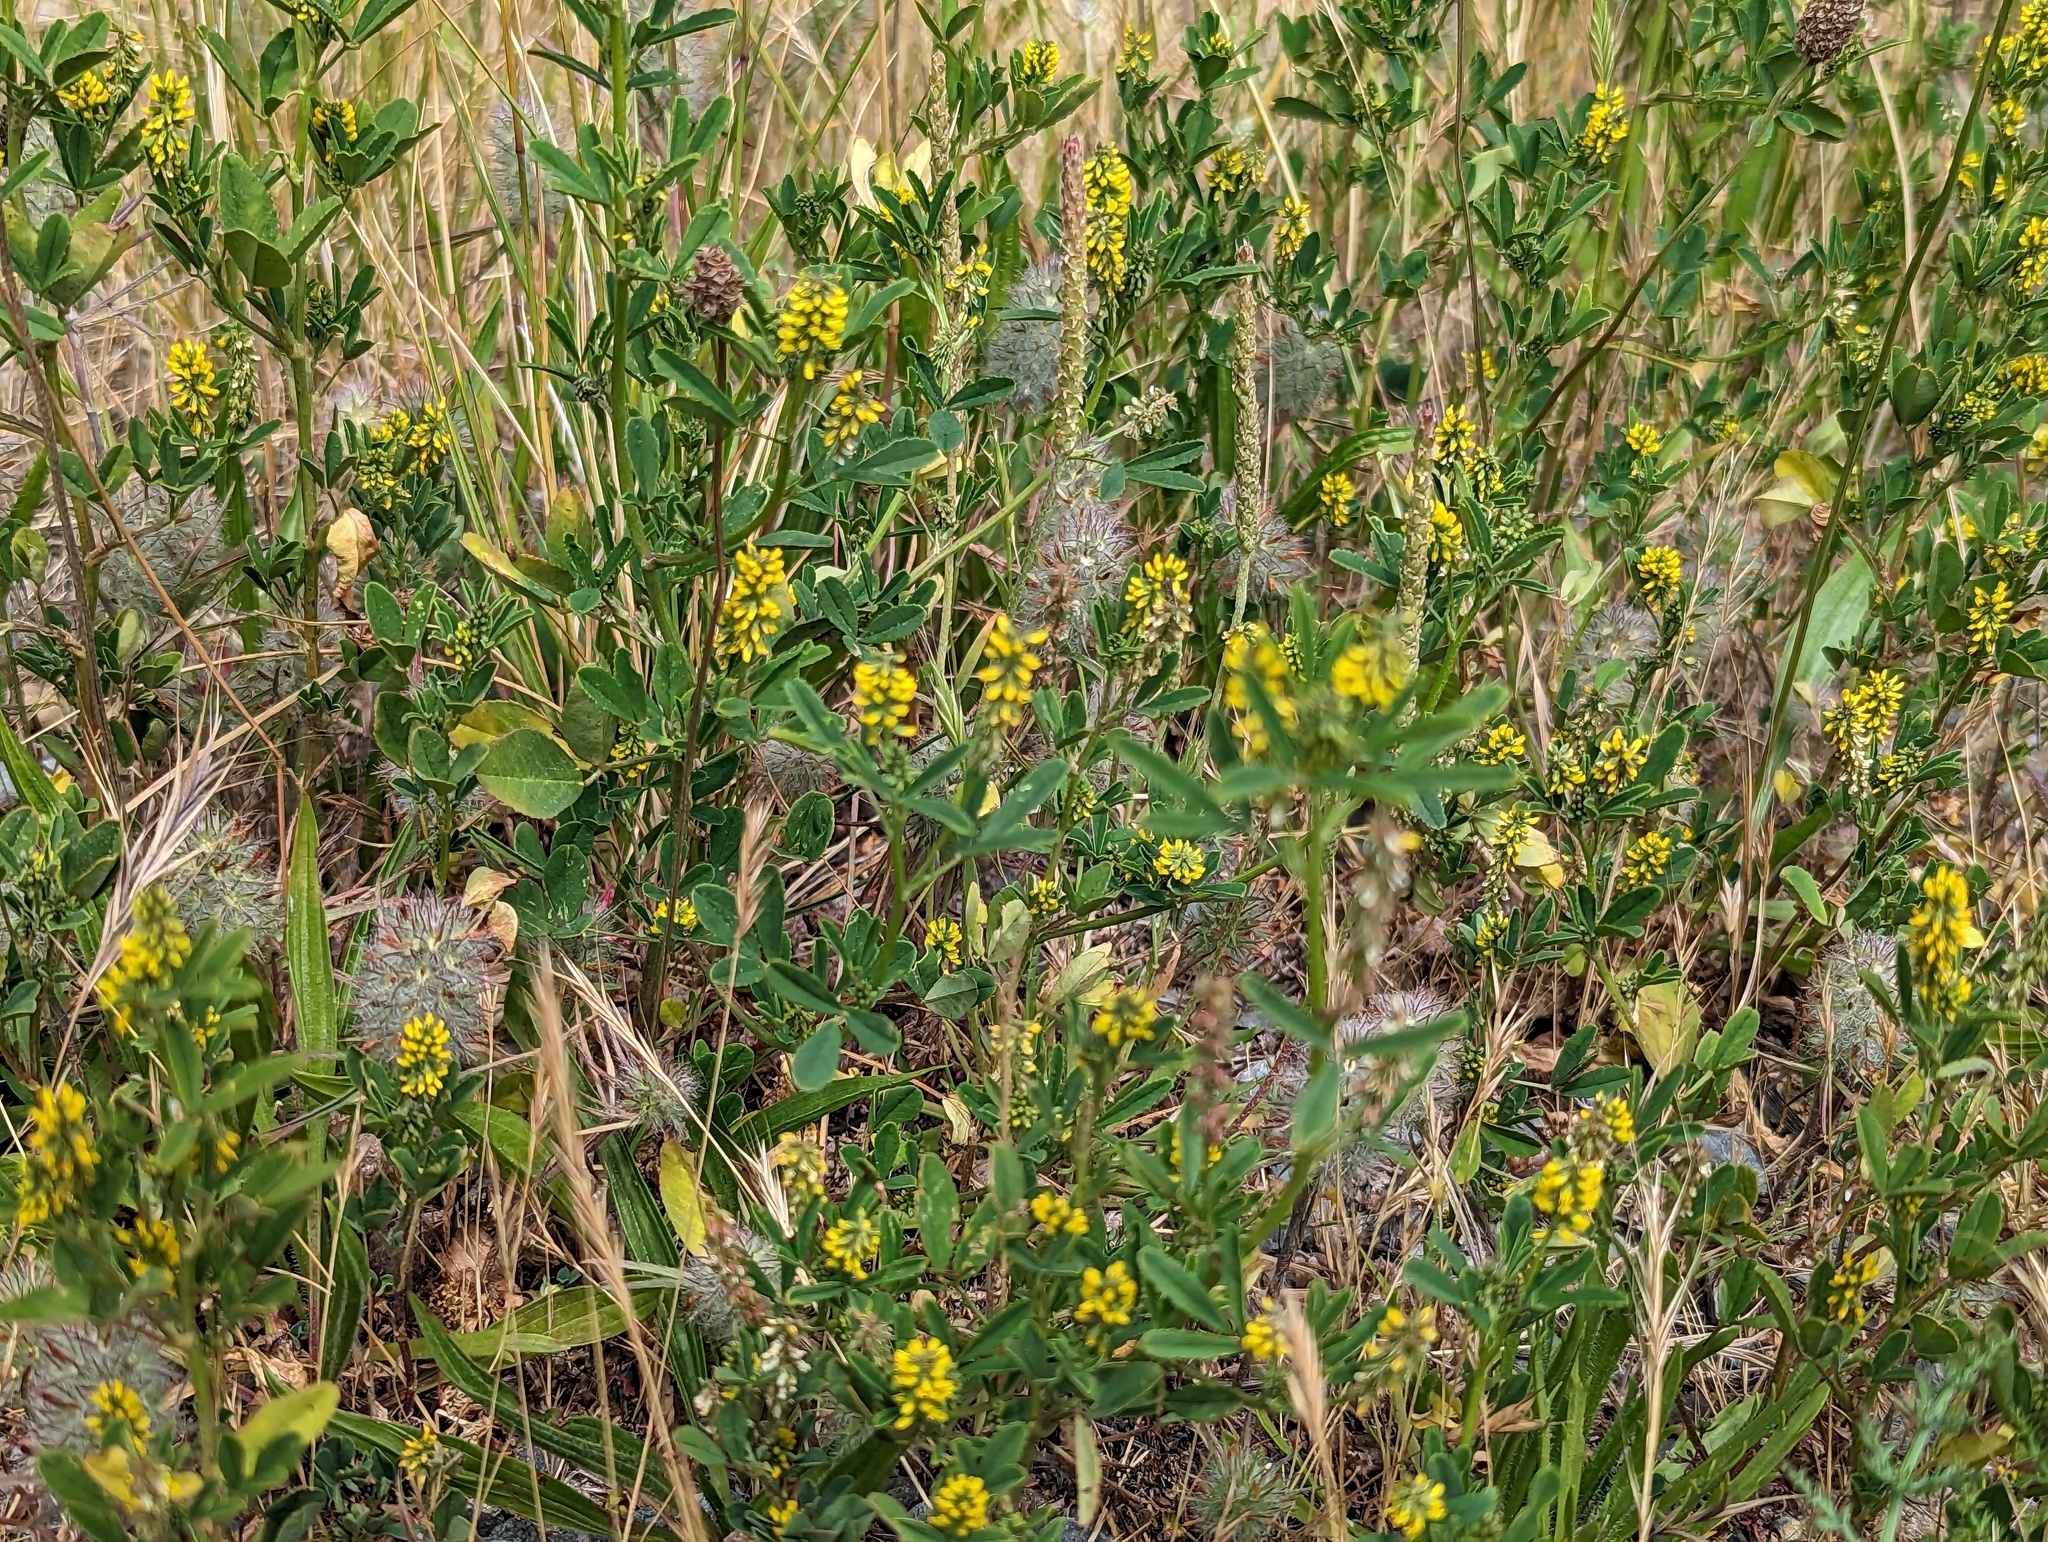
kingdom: Plantae
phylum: Tracheophyta
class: Magnoliopsida
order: Fabales
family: Fabaceae
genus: Melilotus
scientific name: Melilotus indicus
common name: Small melilot
